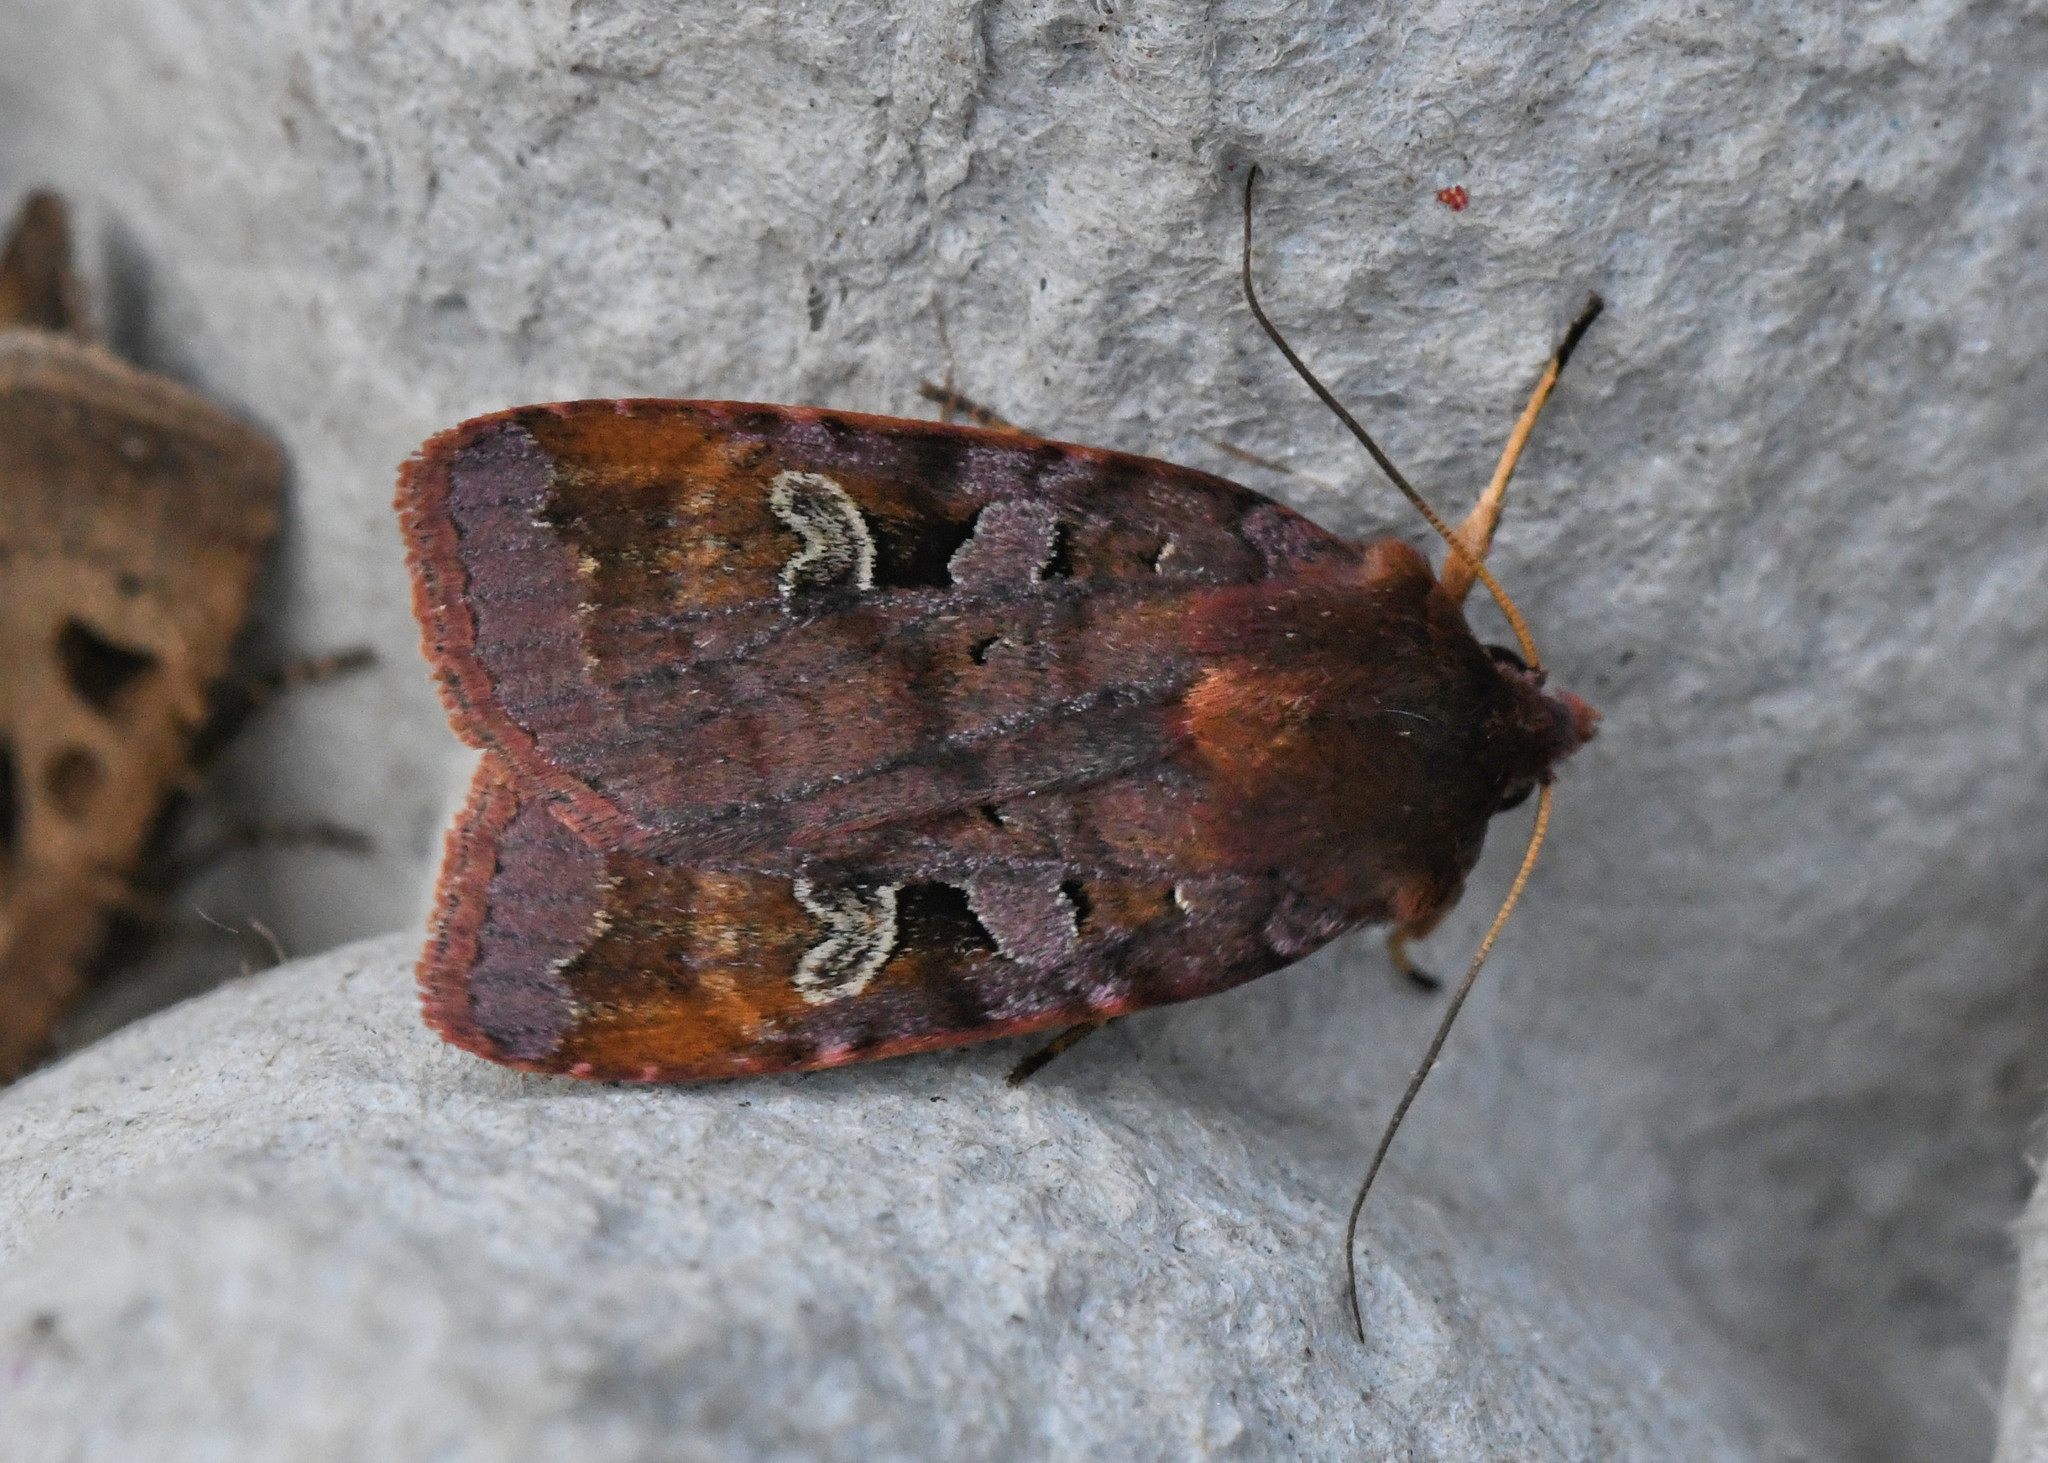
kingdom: Animalia
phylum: Arthropoda
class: Insecta
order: Lepidoptera
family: Noctuidae
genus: Diarsia
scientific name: Diarsia brunnea
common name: Purple clay
